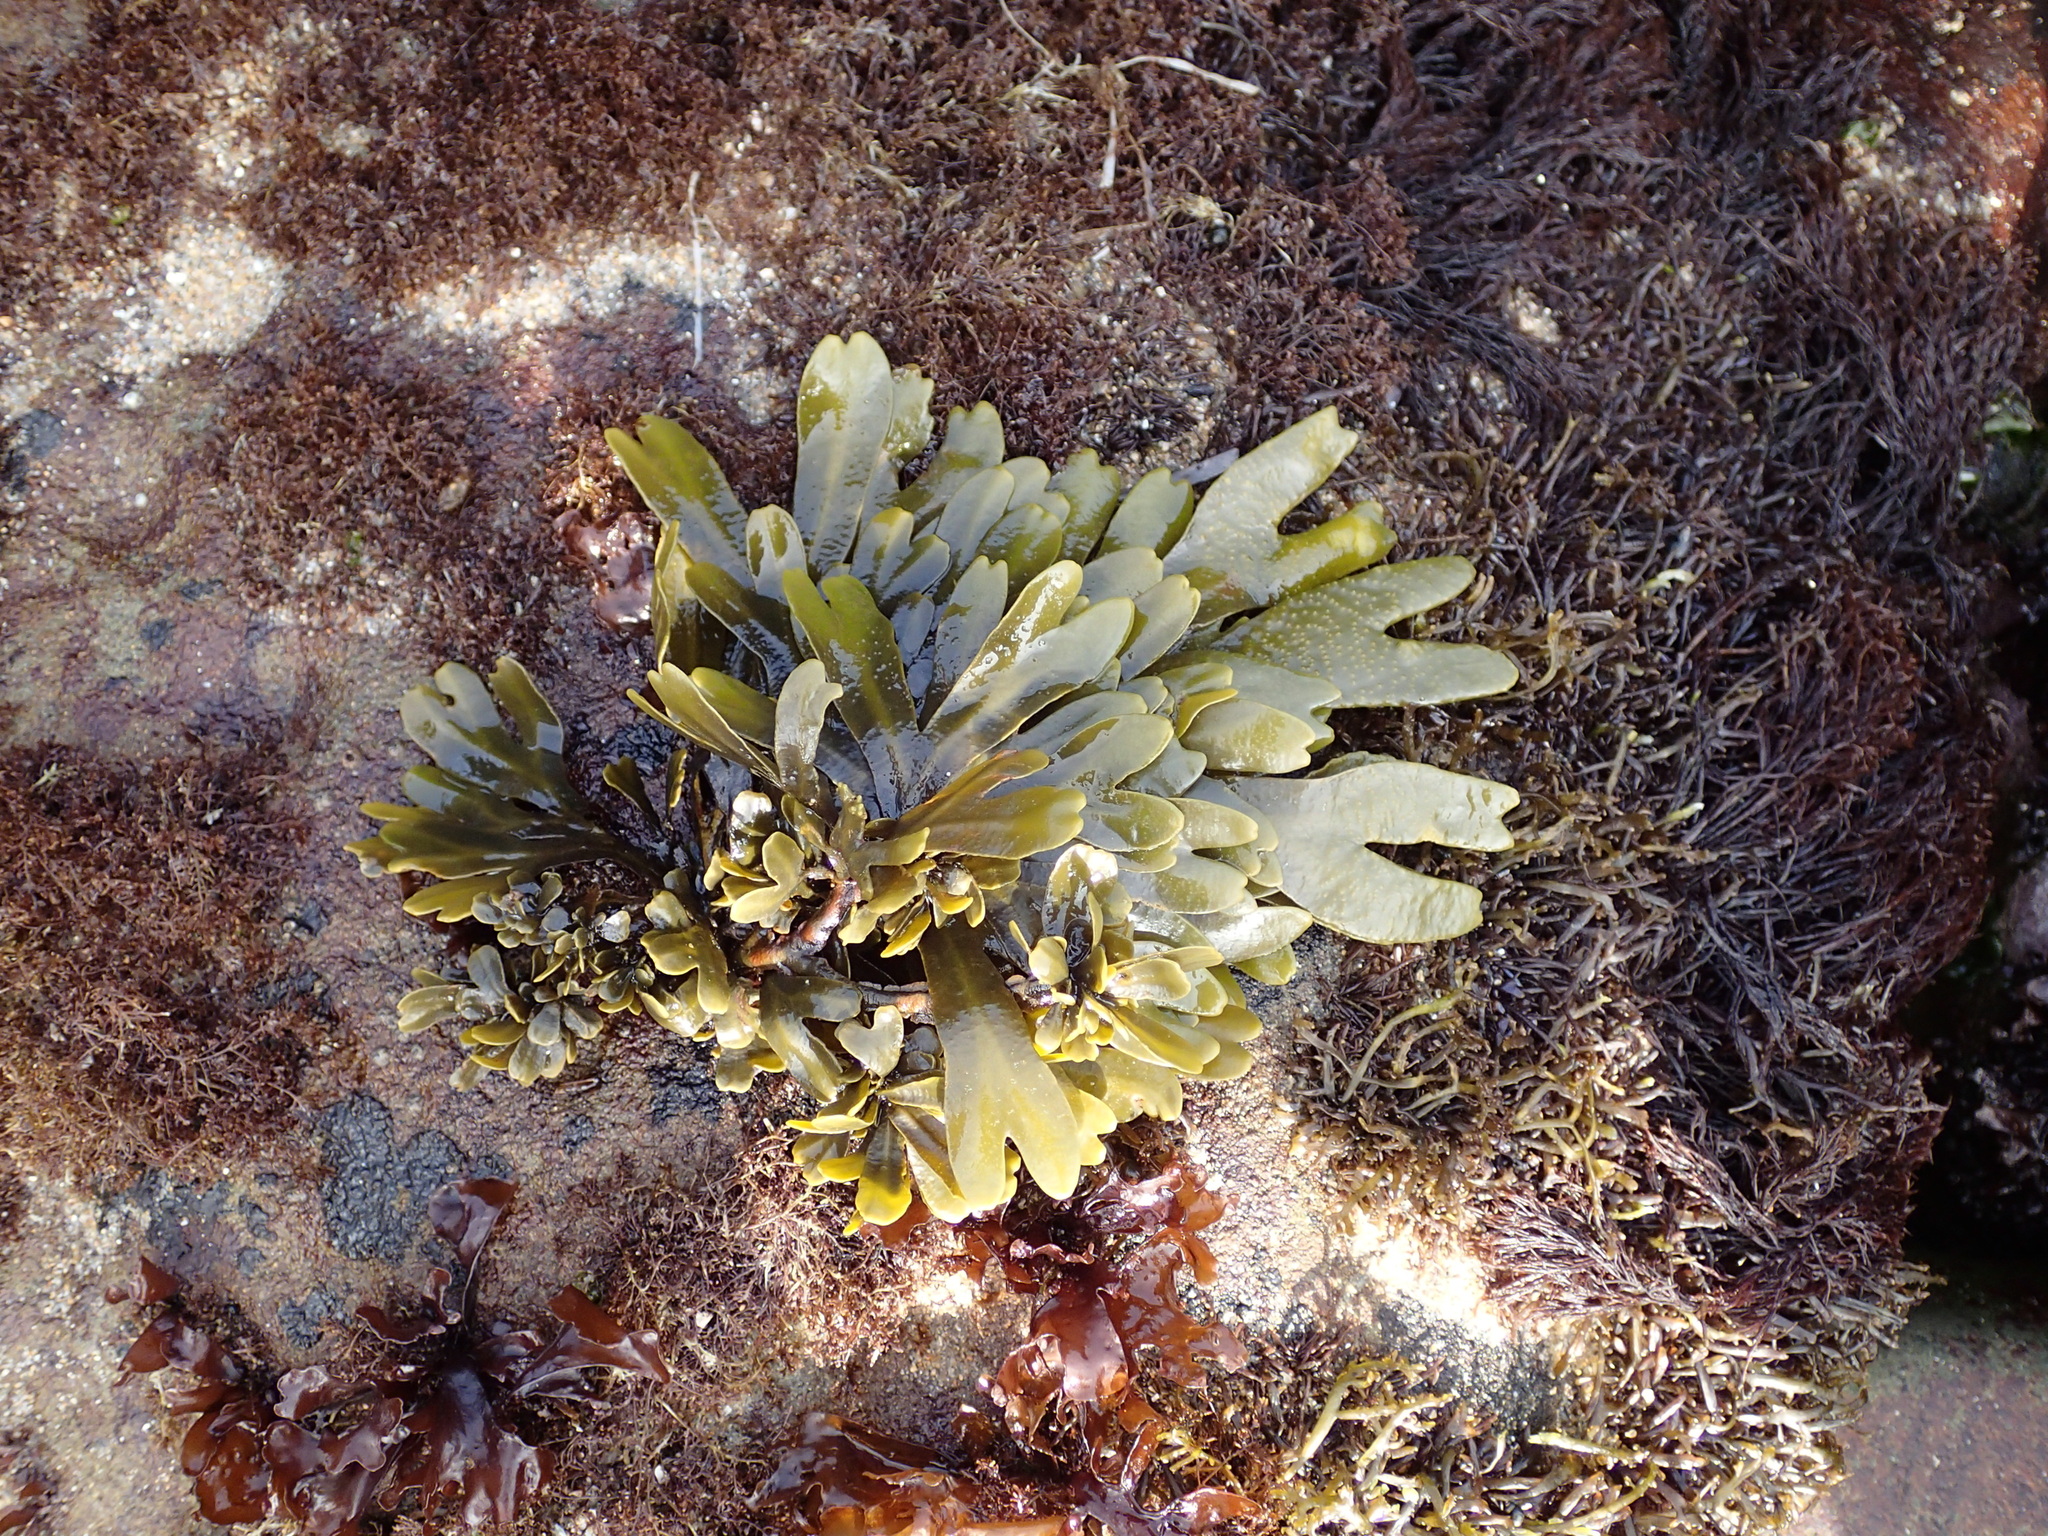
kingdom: Chromista
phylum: Ochrophyta
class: Phaeophyceae
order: Fucales
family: Fucaceae
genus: Fucus
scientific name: Fucus distichus
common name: Rockweed
